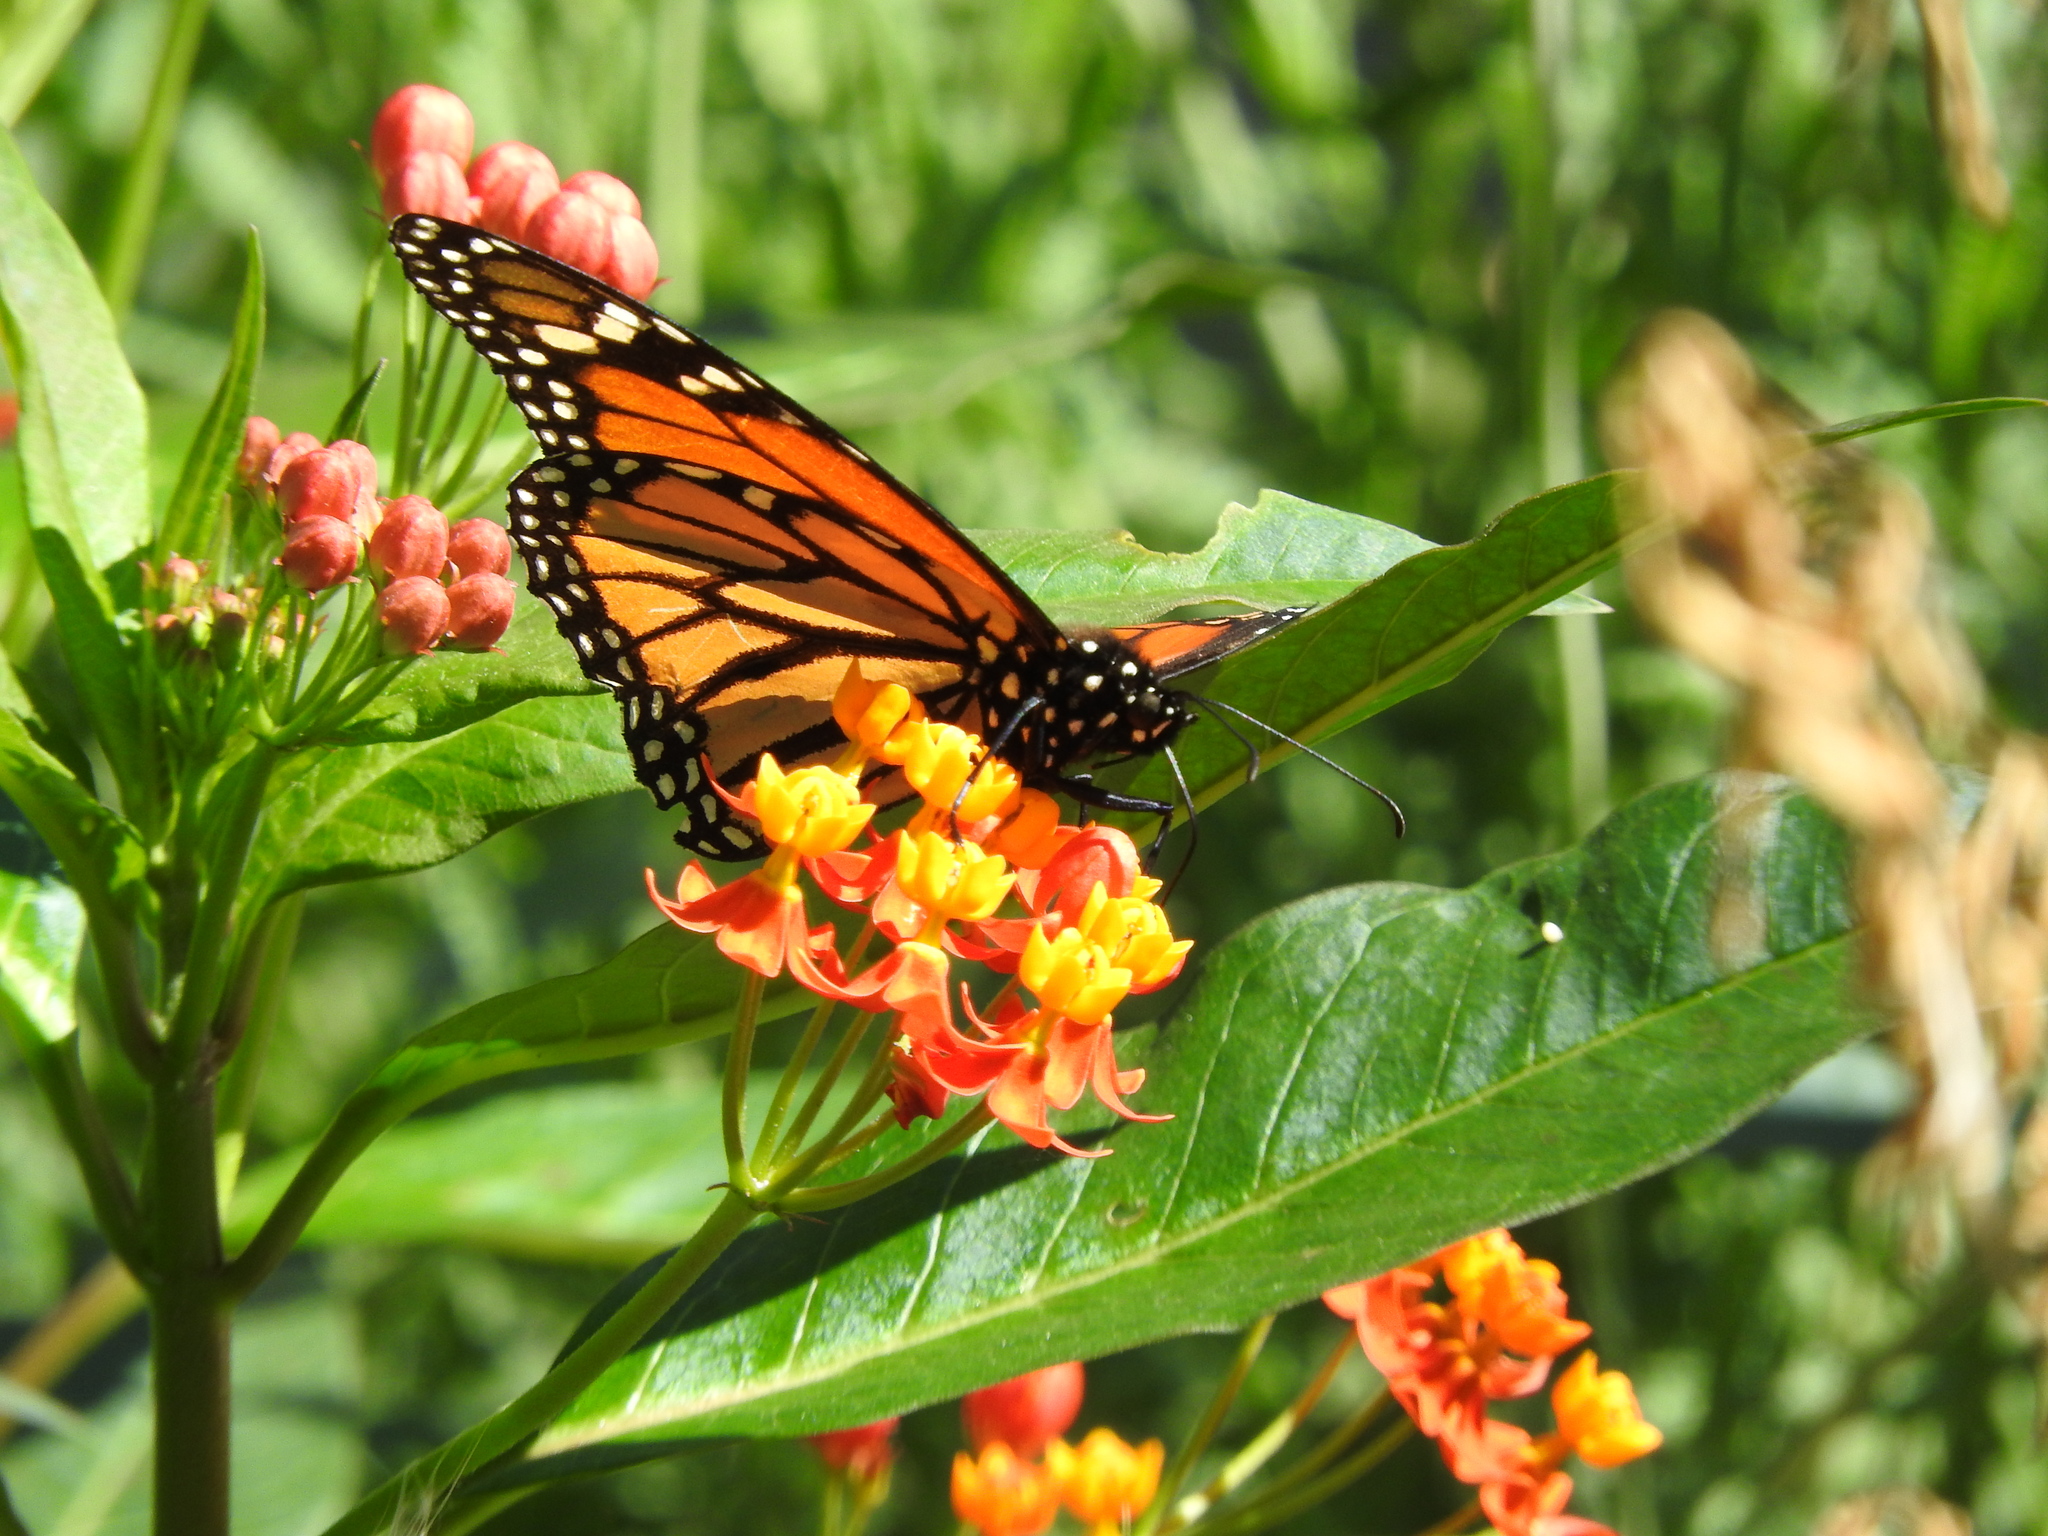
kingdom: Animalia
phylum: Arthropoda
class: Insecta
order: Lepidoptera
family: Nymphalidae
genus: Danaus
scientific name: Danaus plexippus
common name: Monarch
